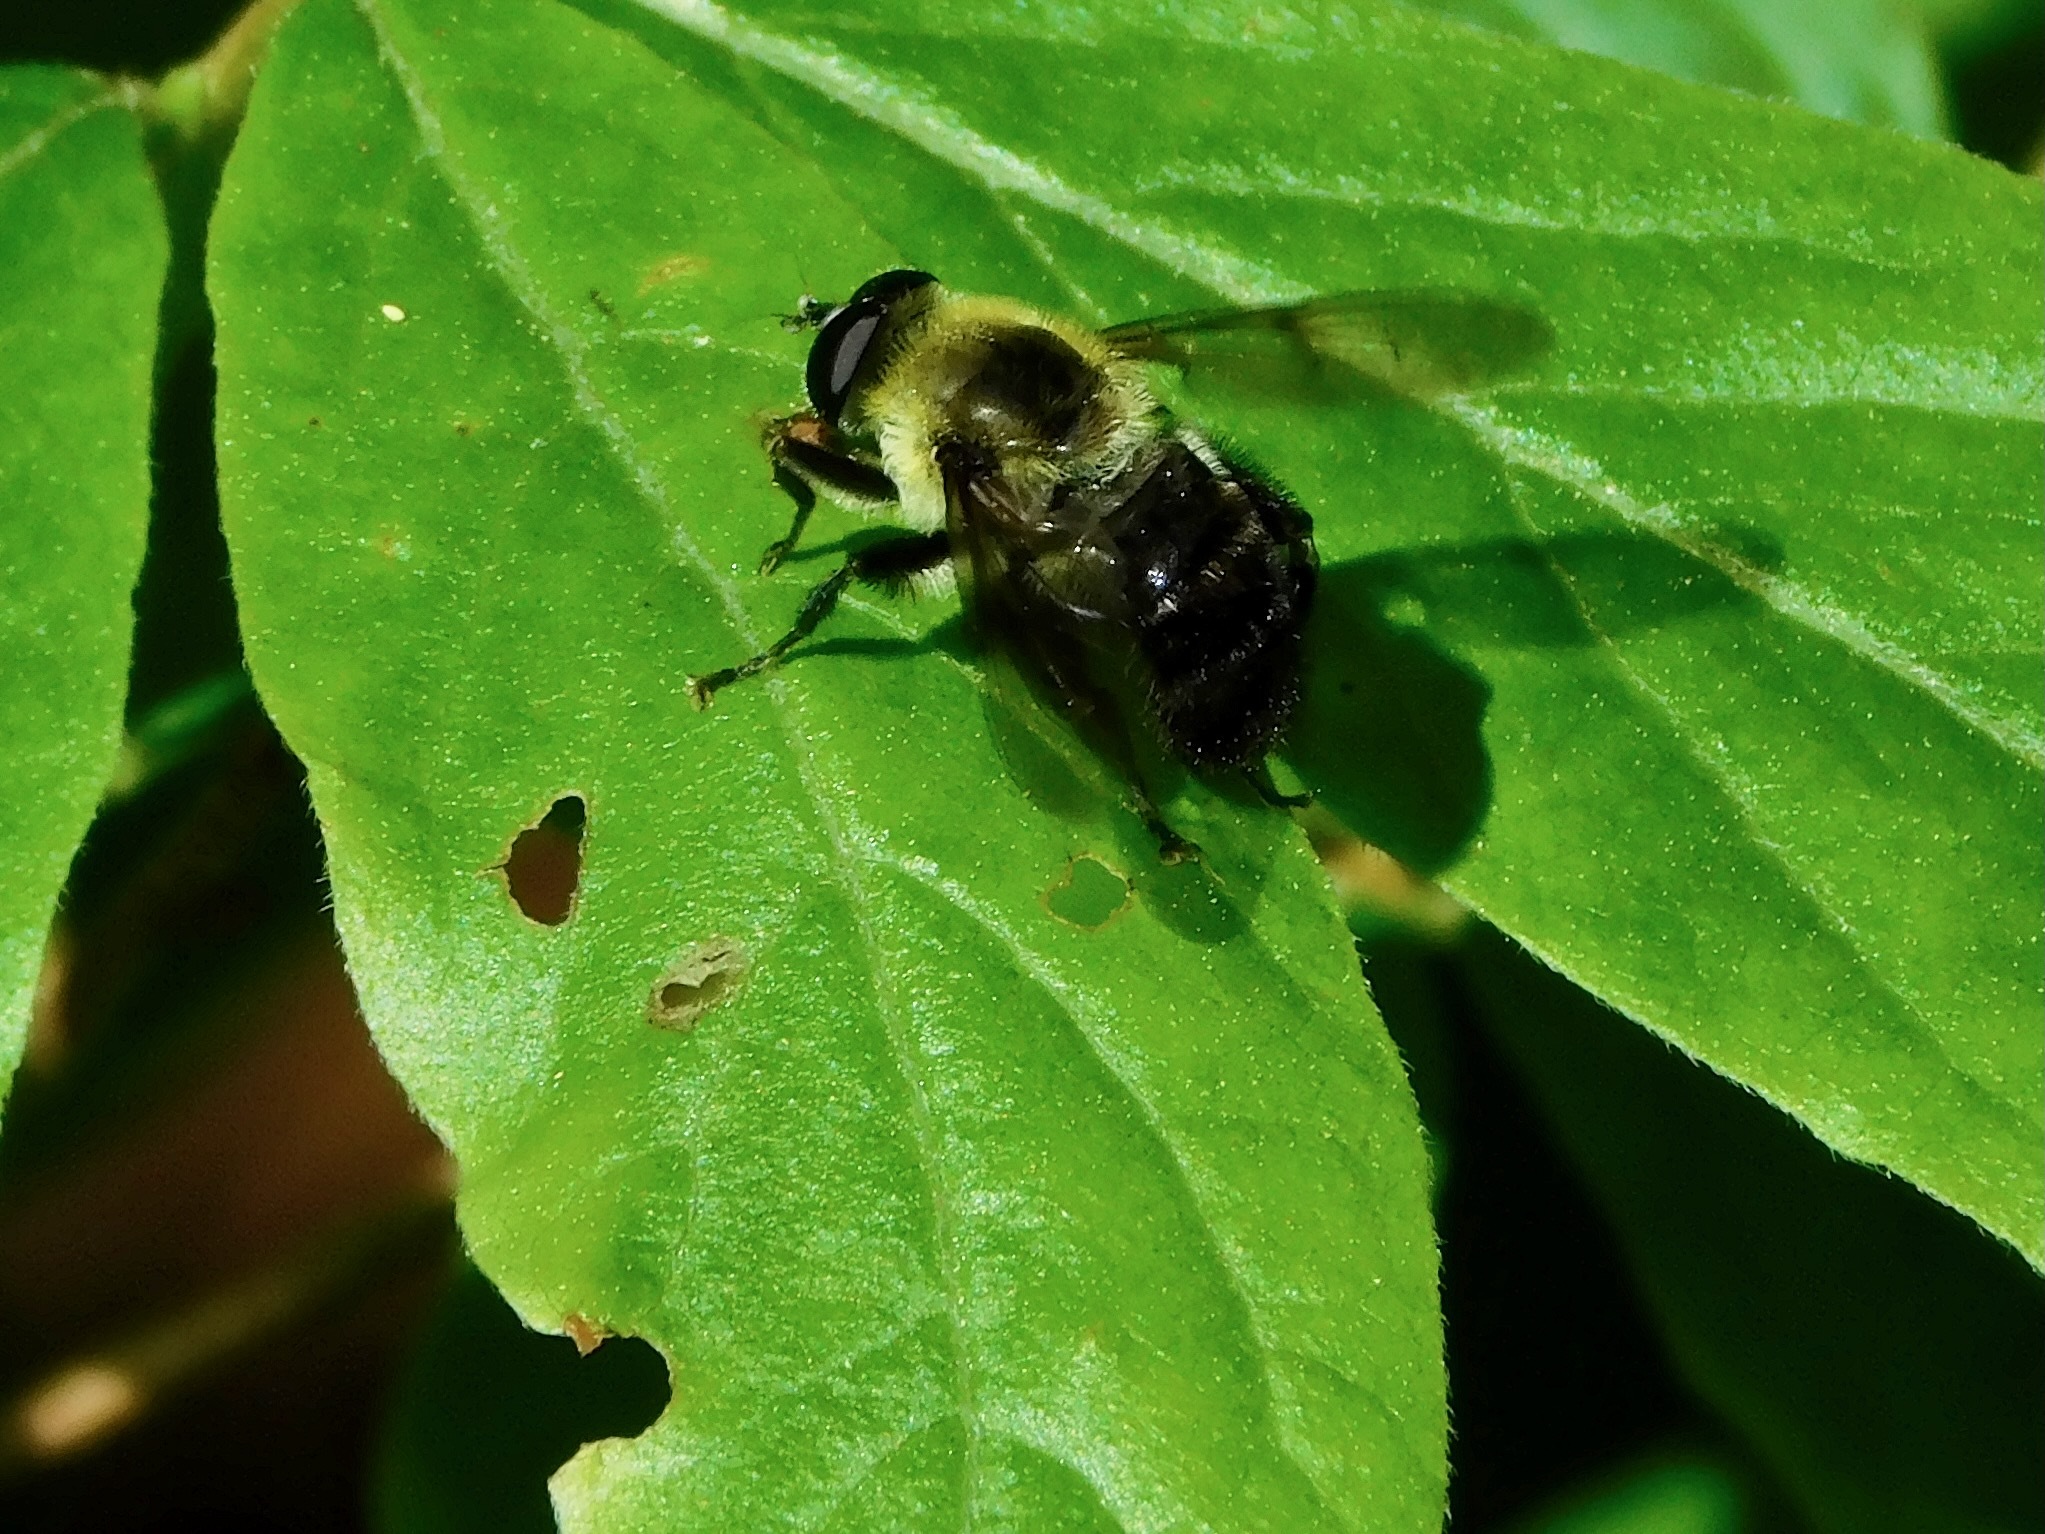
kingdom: Animalia
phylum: Arthropoda
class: Insecta
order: Diptera
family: Syrphidae
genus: Imatisma
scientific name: Imatisma posticata
